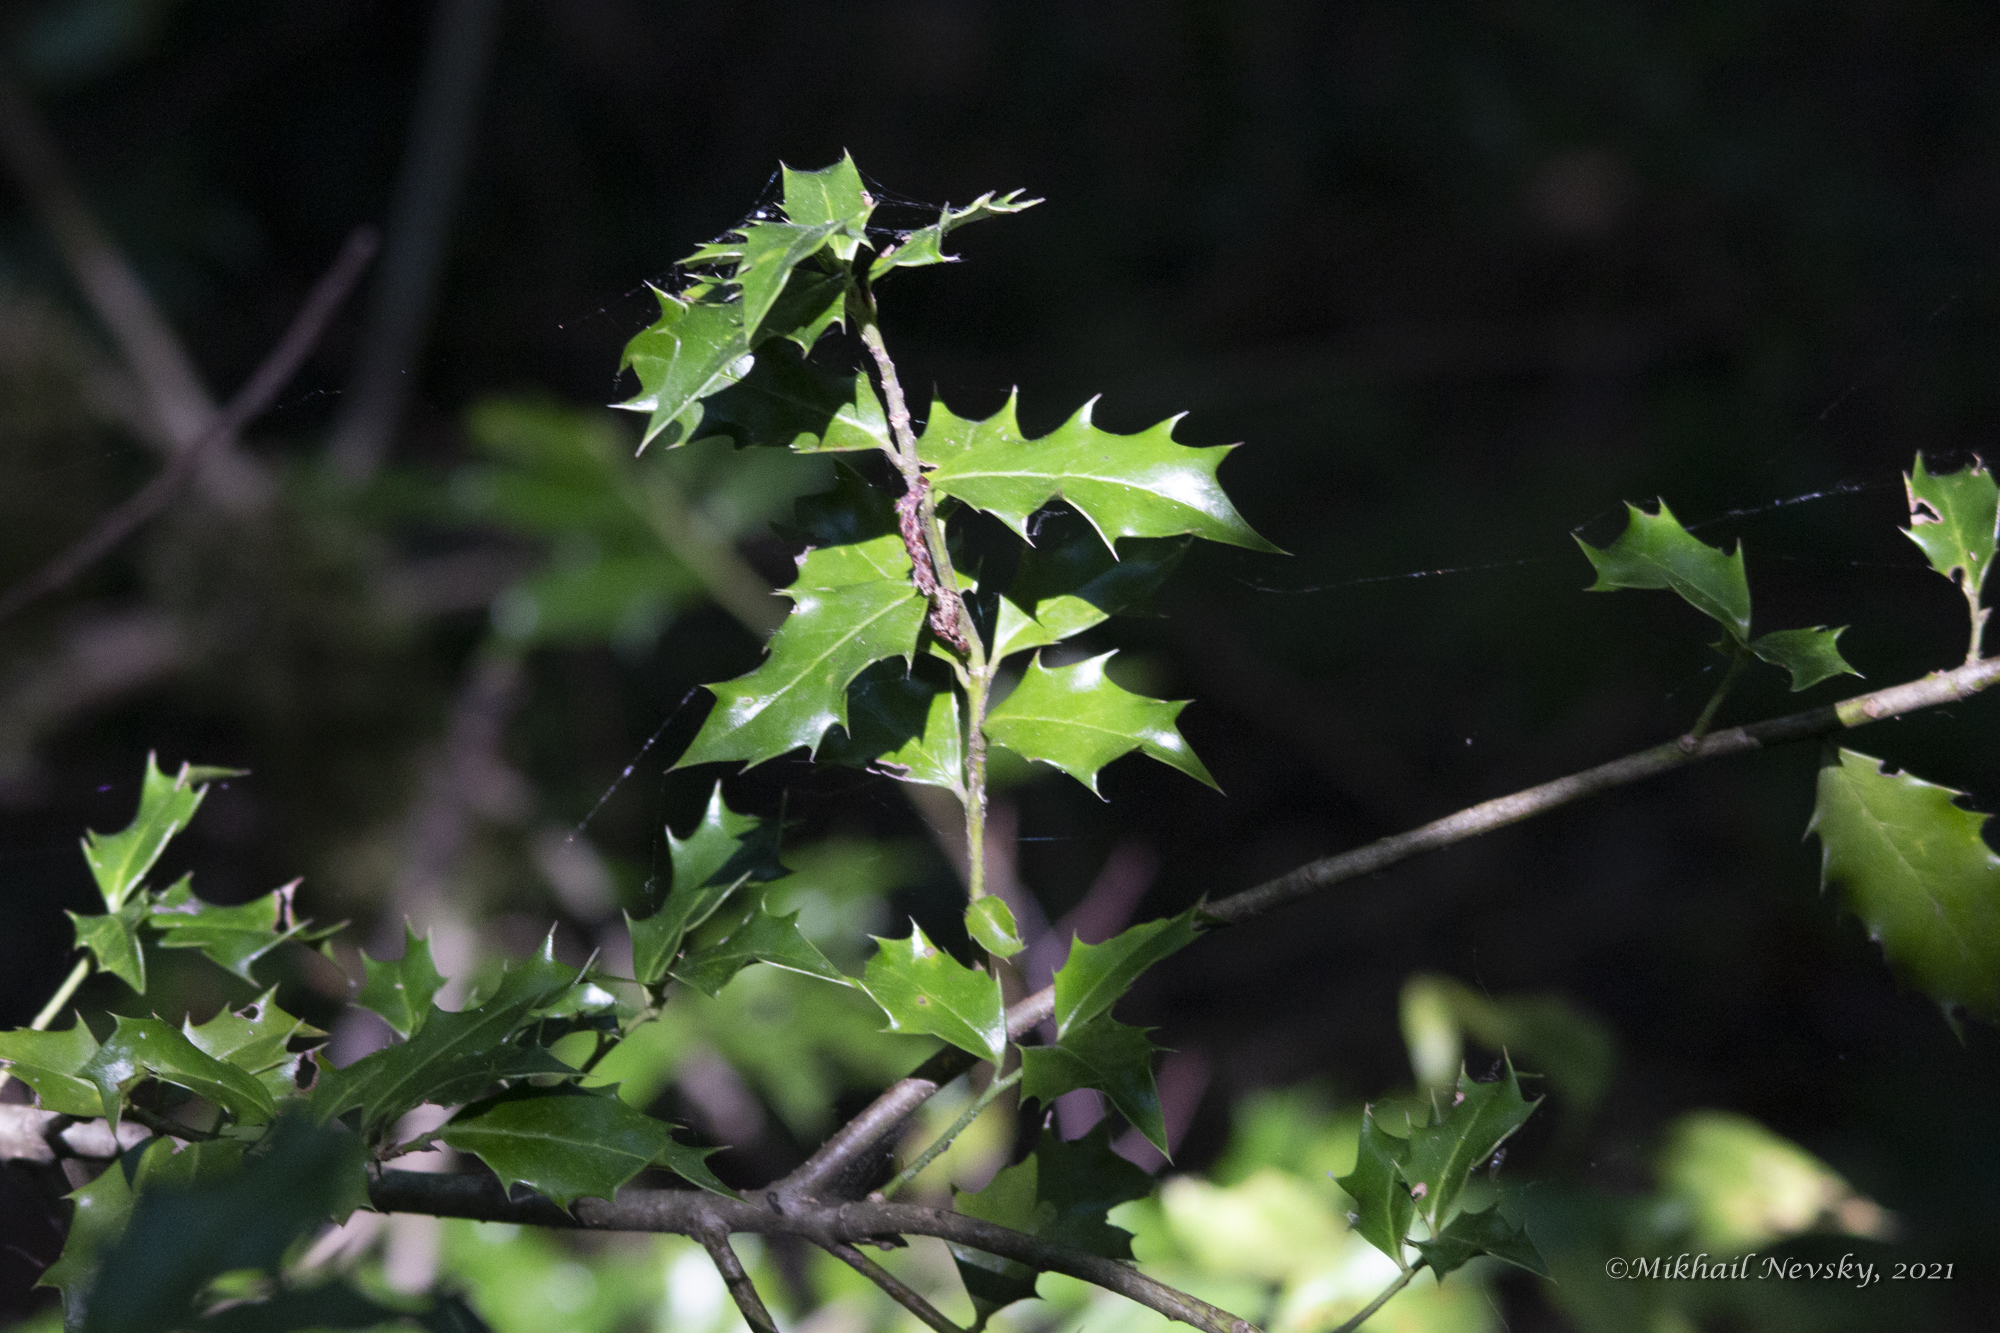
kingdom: Plantae
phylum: Tracheophyta
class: Magnoliopsida
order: Aquifoliales
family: Aquifoliaceae
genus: Ilex
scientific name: Ilex colchica
